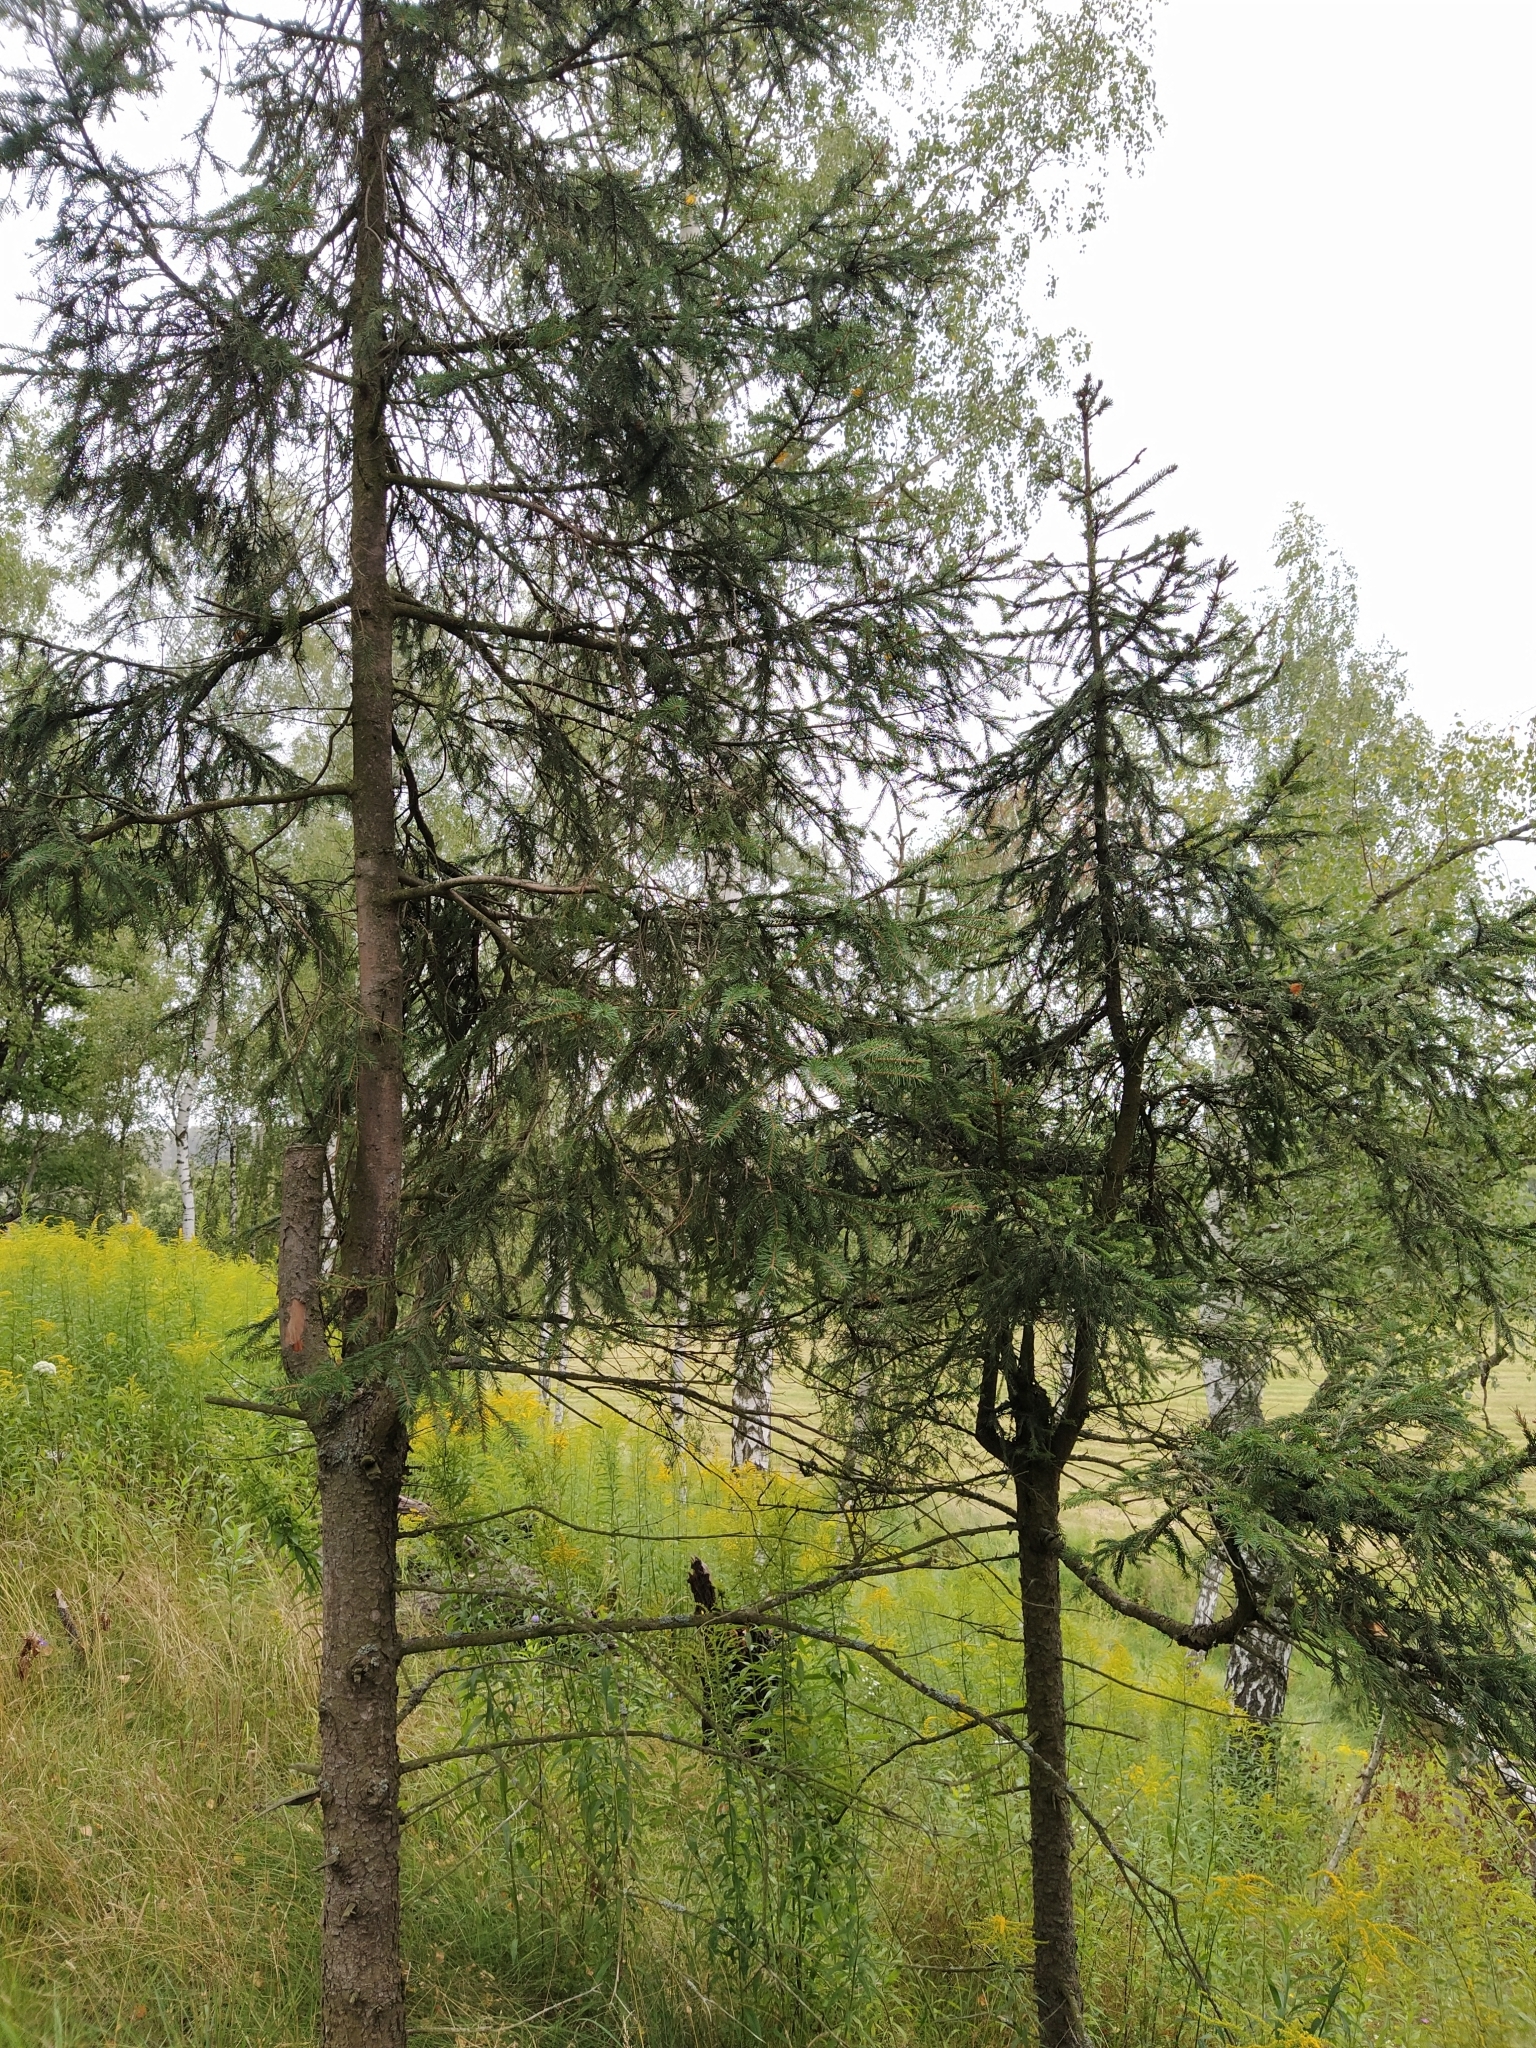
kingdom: Plantae
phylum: Tracheophyta
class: Pinopsida
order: Pinales
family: Pinaceae
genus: Picea
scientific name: Picea abies
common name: Norway spruce
